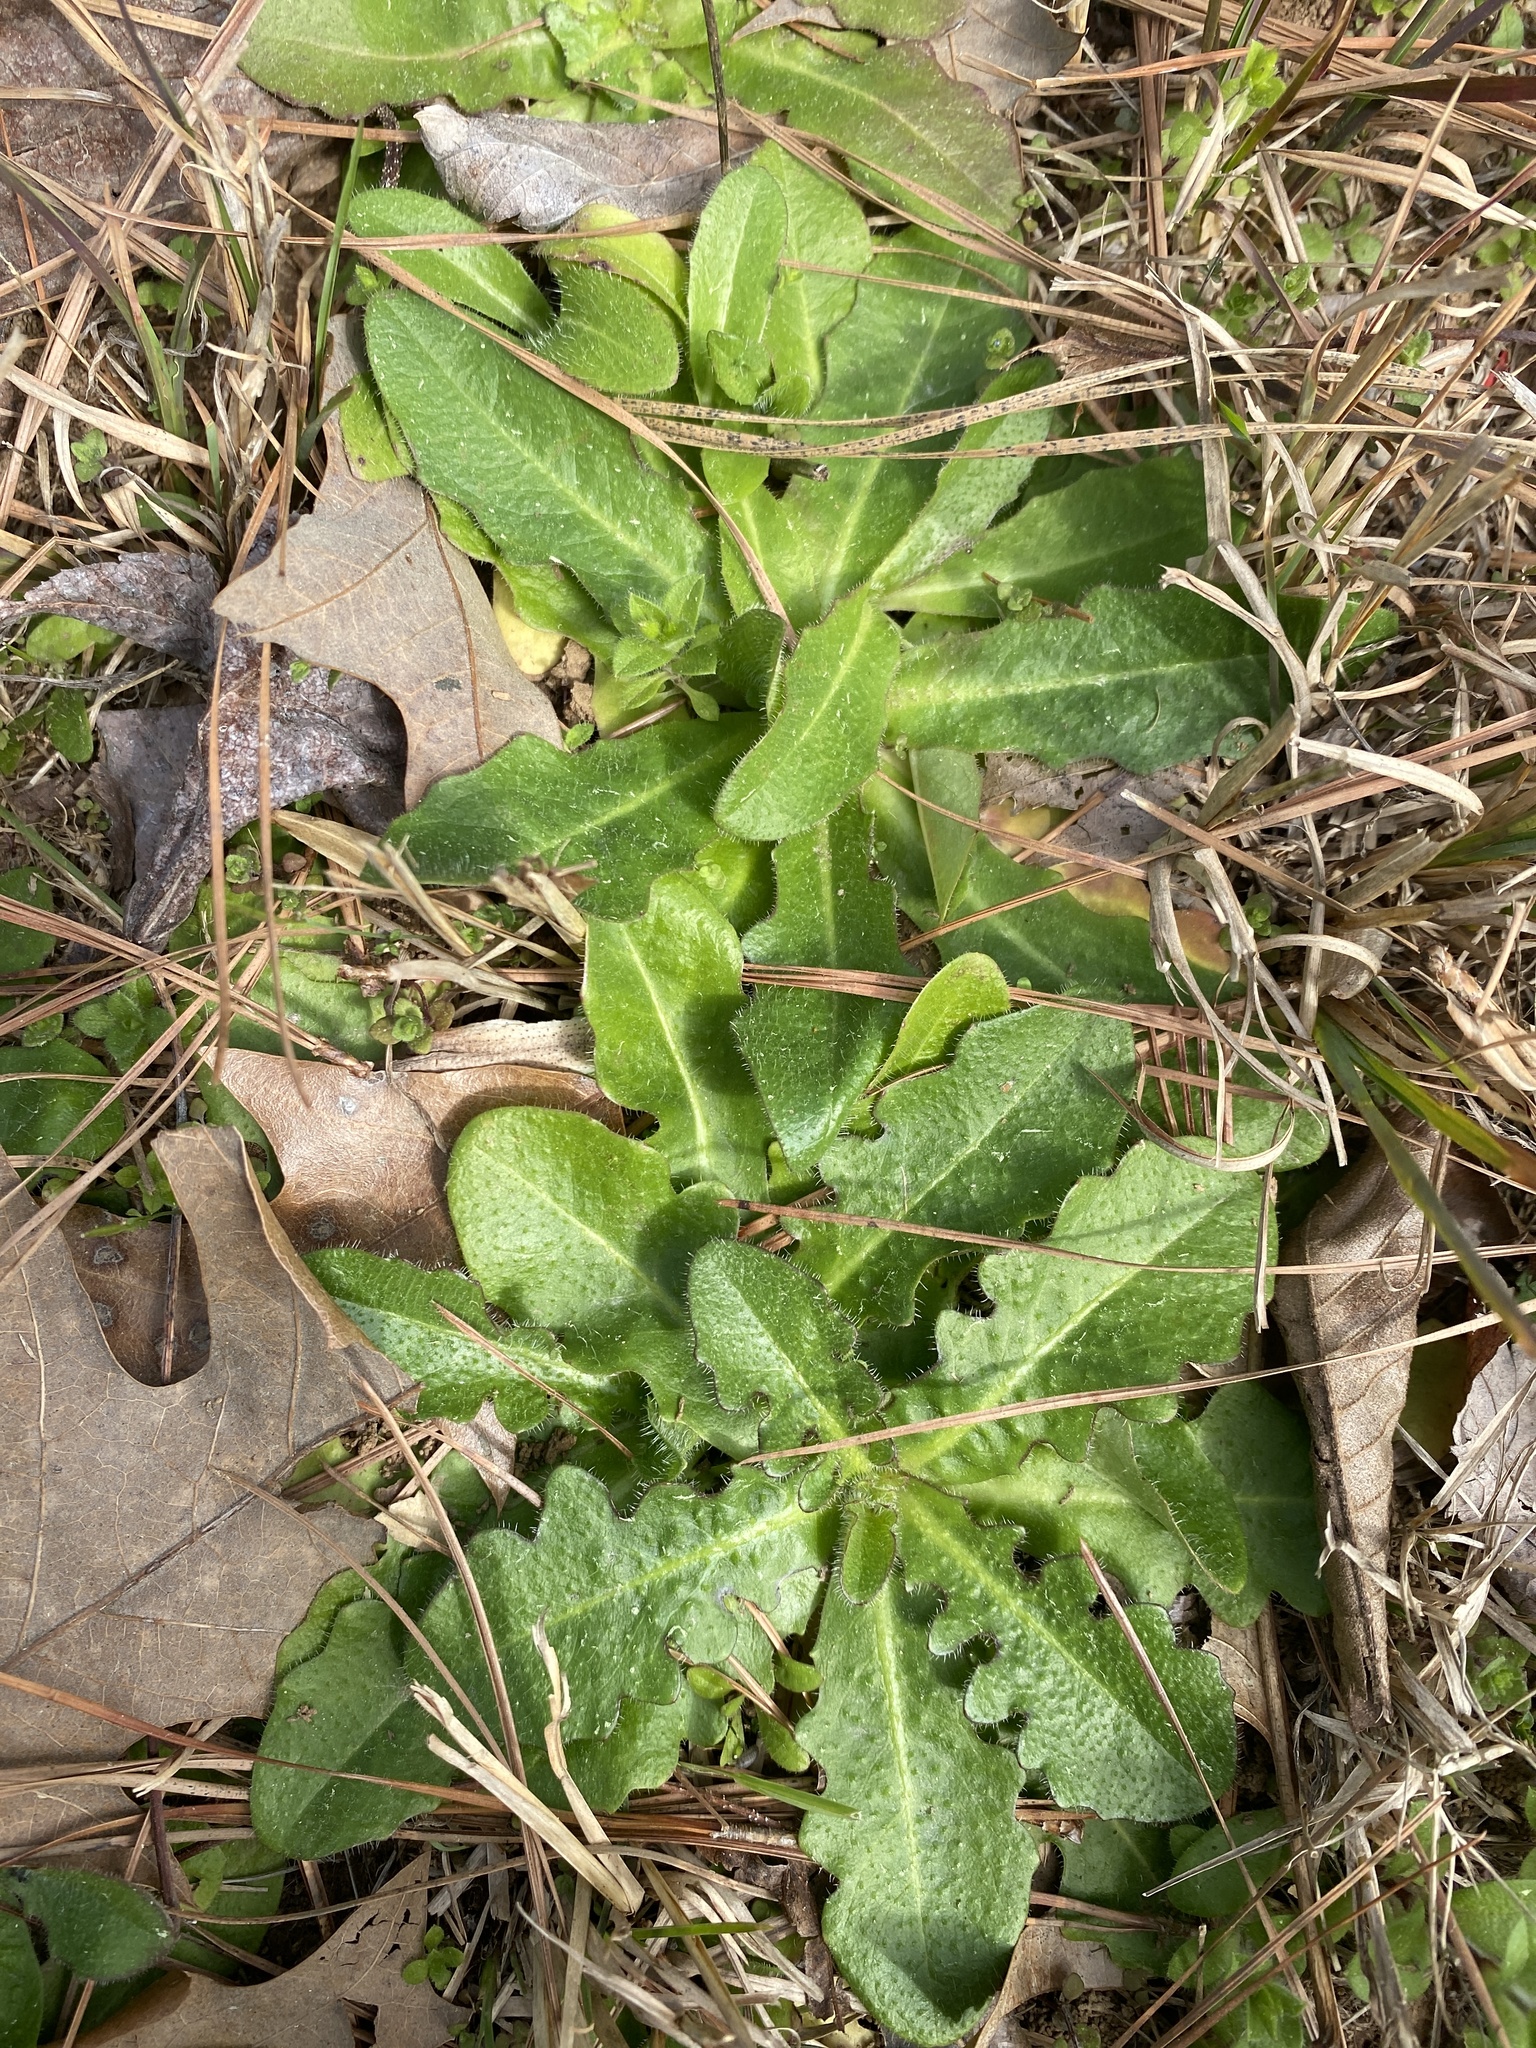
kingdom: Plantae
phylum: Tracheophyta
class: Magnoliopsida
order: Asterales
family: Asteraceae
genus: Hypochaeris
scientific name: Hypochaeris radicata
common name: Flatweed
